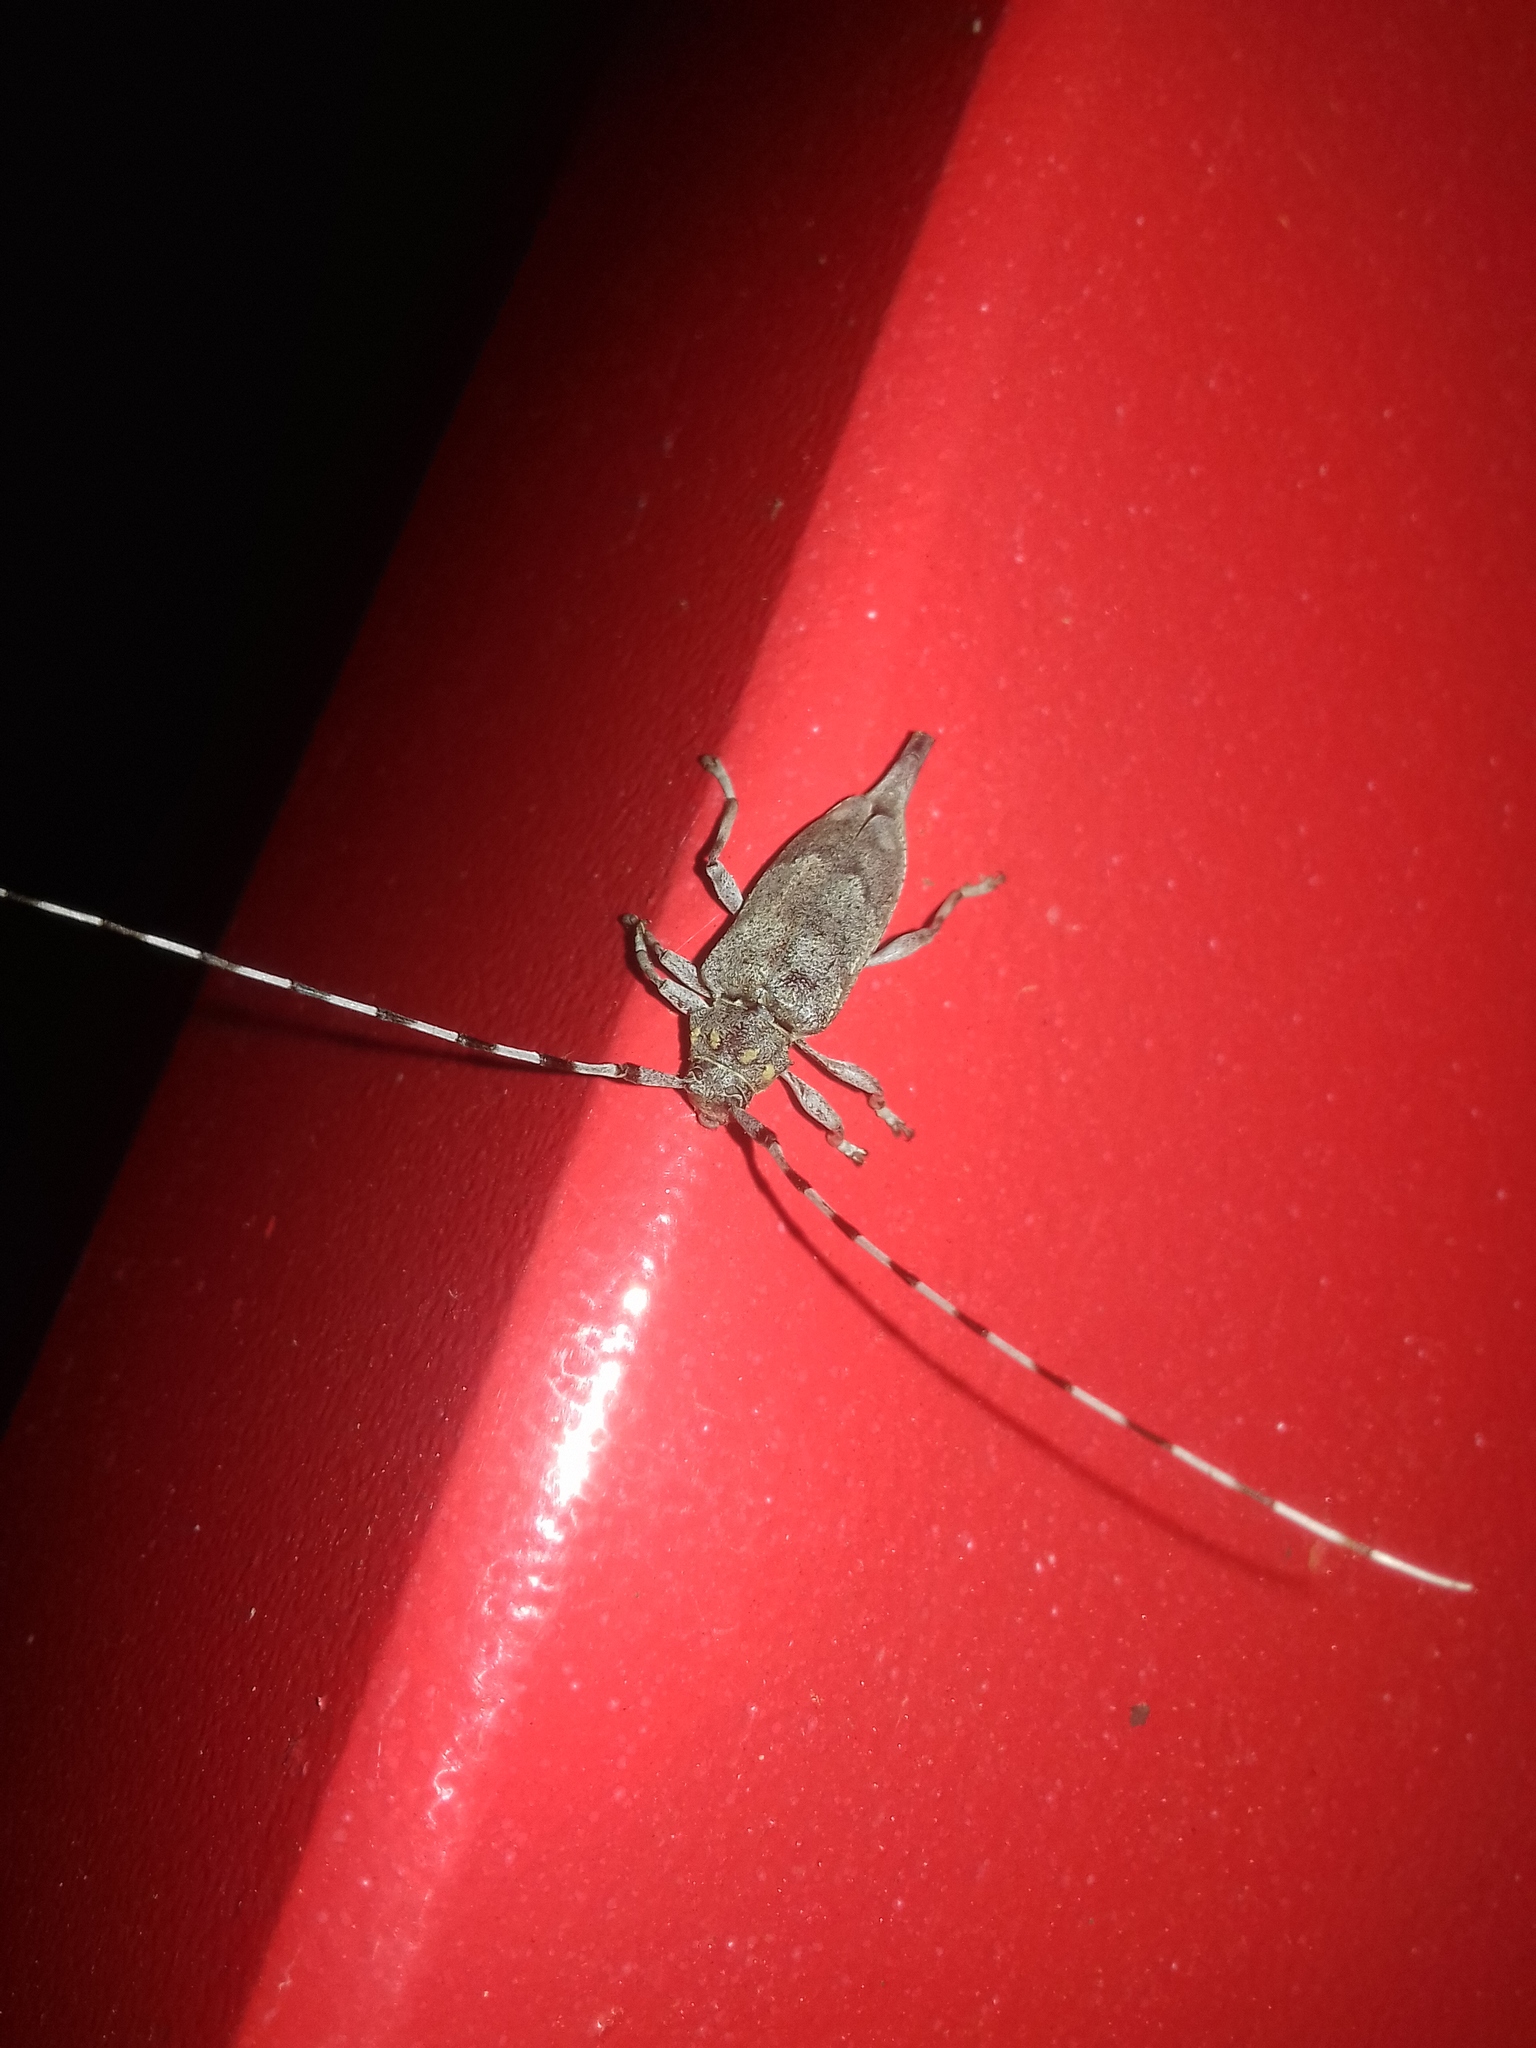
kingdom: Animalia
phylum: Arthropoda
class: Insecta
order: Coleoptera
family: Cerambycidae
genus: Acanthocinus
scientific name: Acanthocinus aedilis
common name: Timberman beetle
